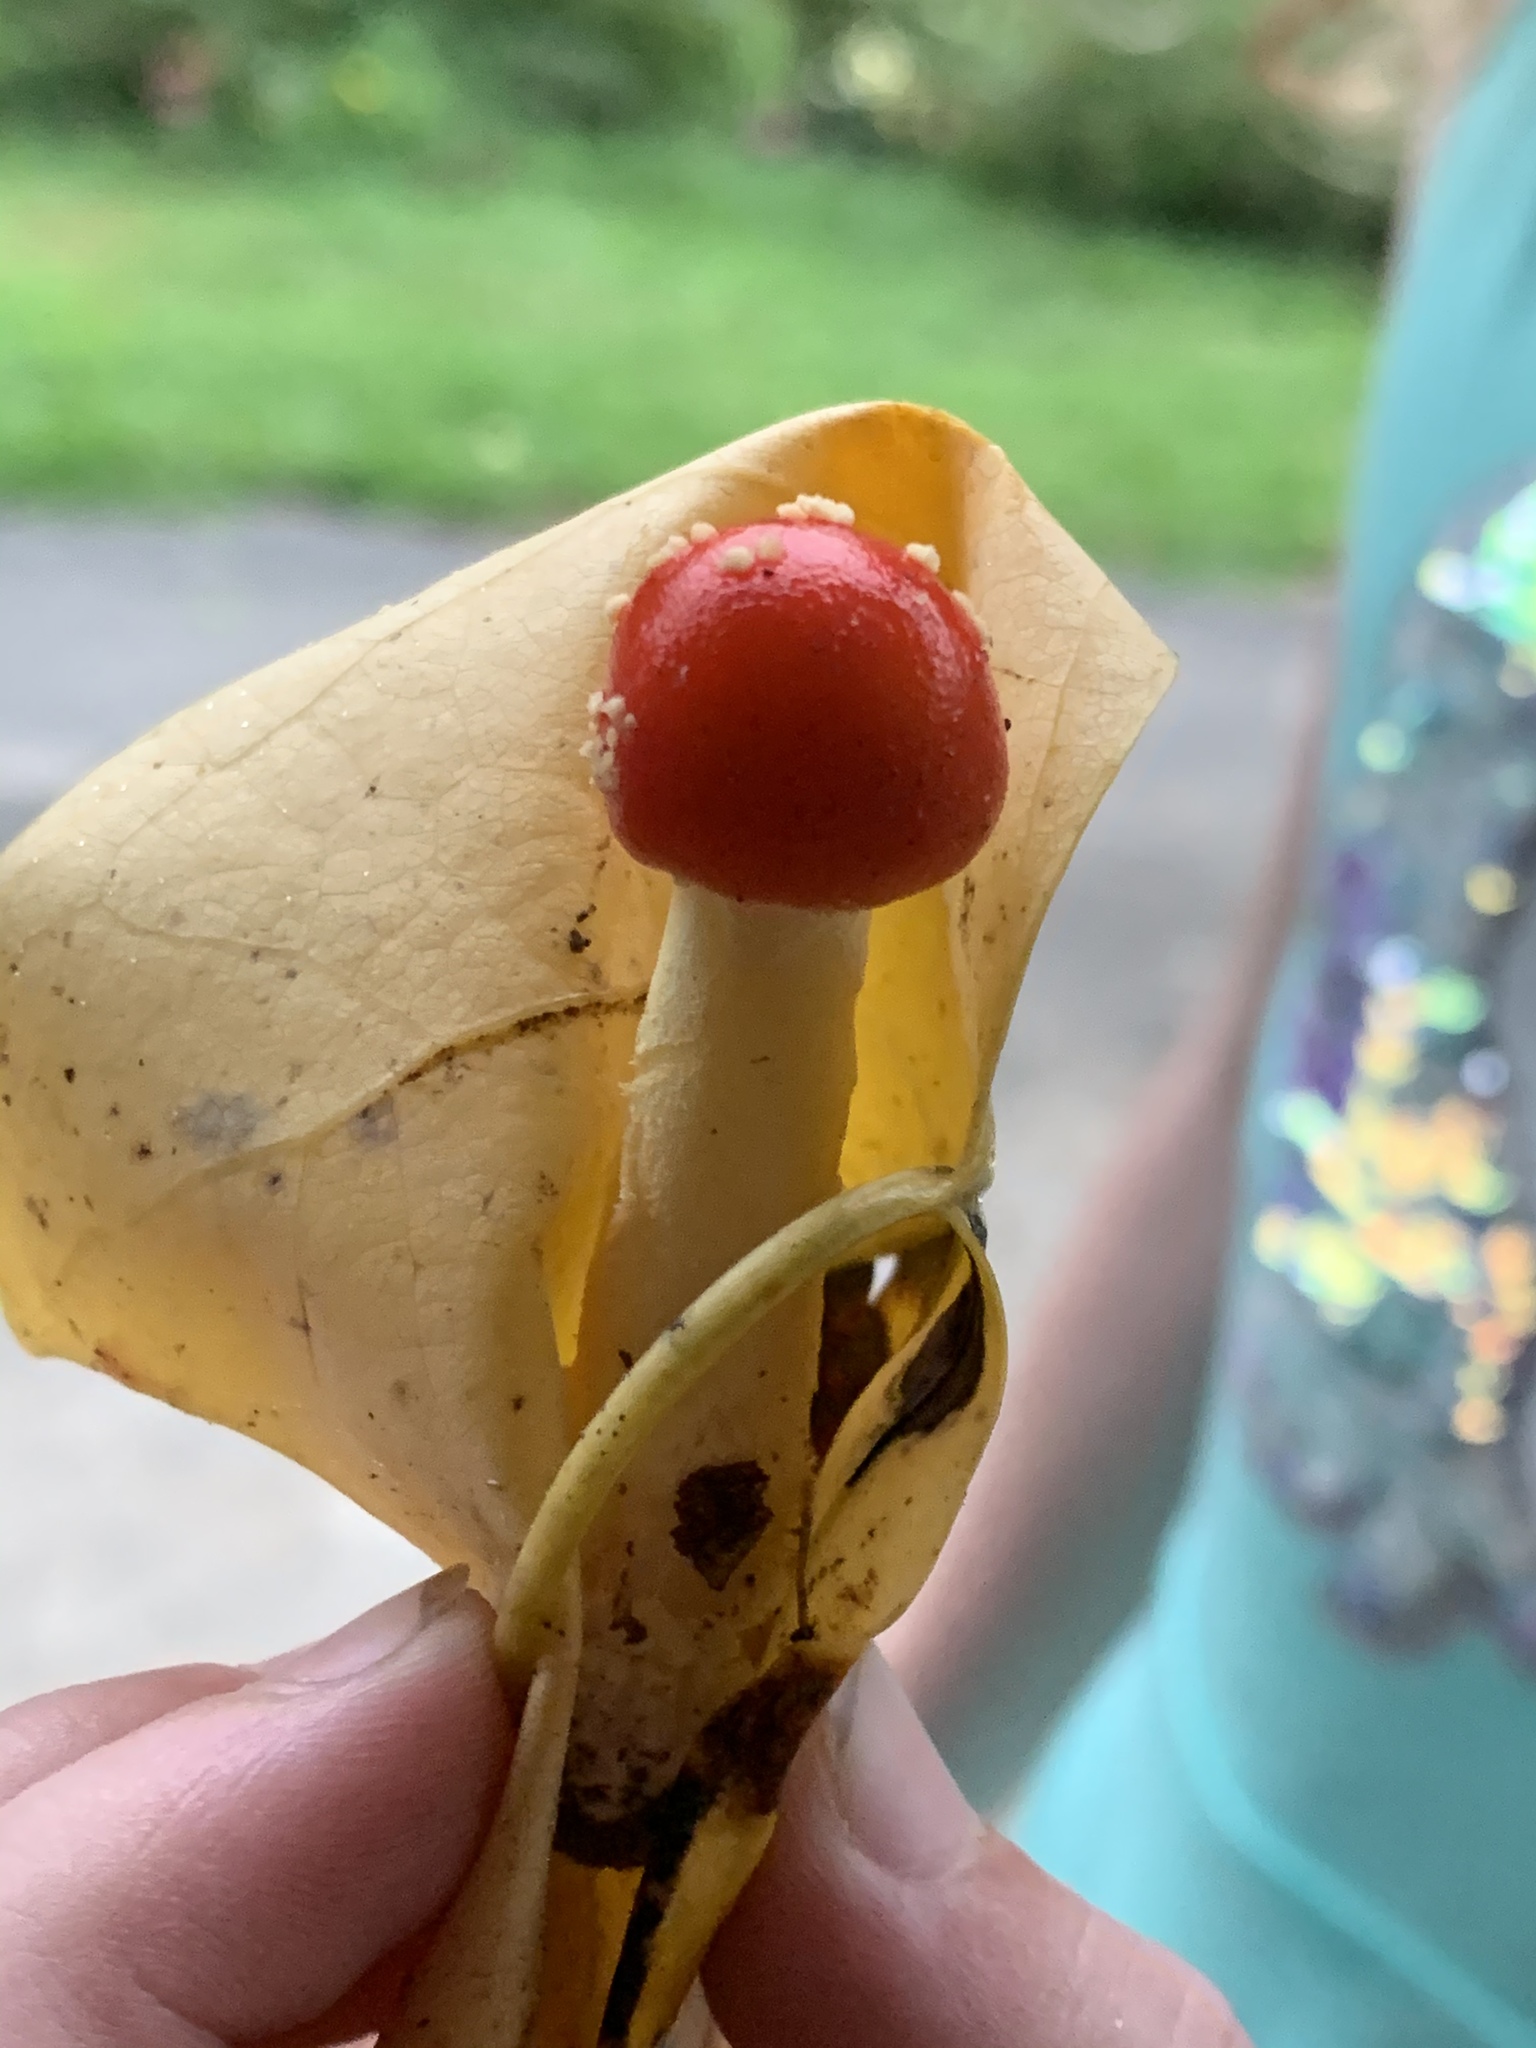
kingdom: Fungi
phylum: Basidiomycota
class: Agaricomycetes
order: Agaricales
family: Amanitaceae
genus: Amanita
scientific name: Amanita parcivolvata
